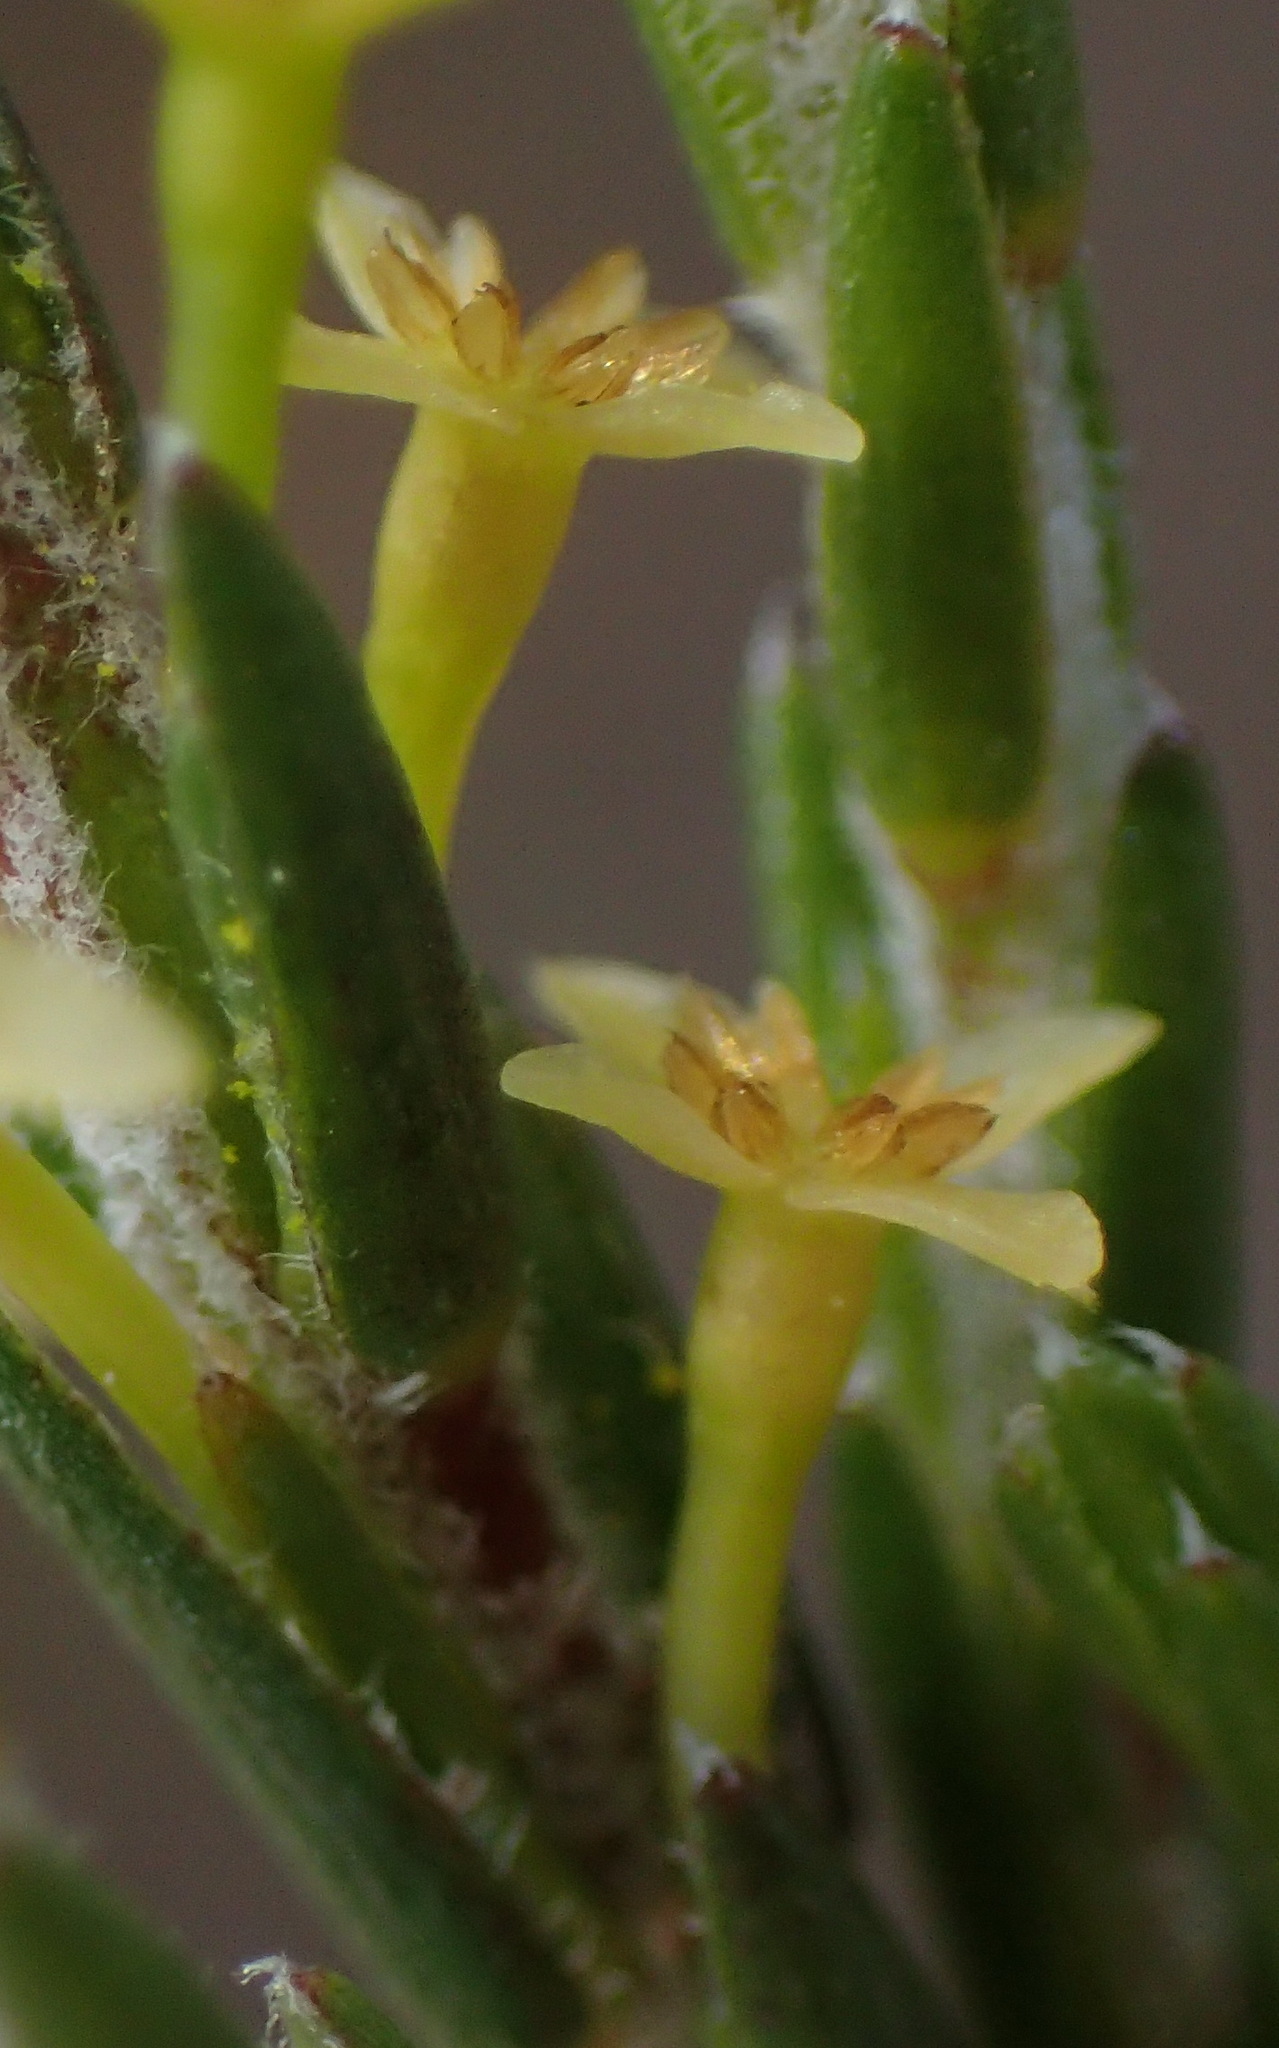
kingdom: Plantae
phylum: Tracheophyta
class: Magnoliopsida
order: Malvales
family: Thymelaeaceae
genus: Struthiola
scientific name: Struthiola parviflora
